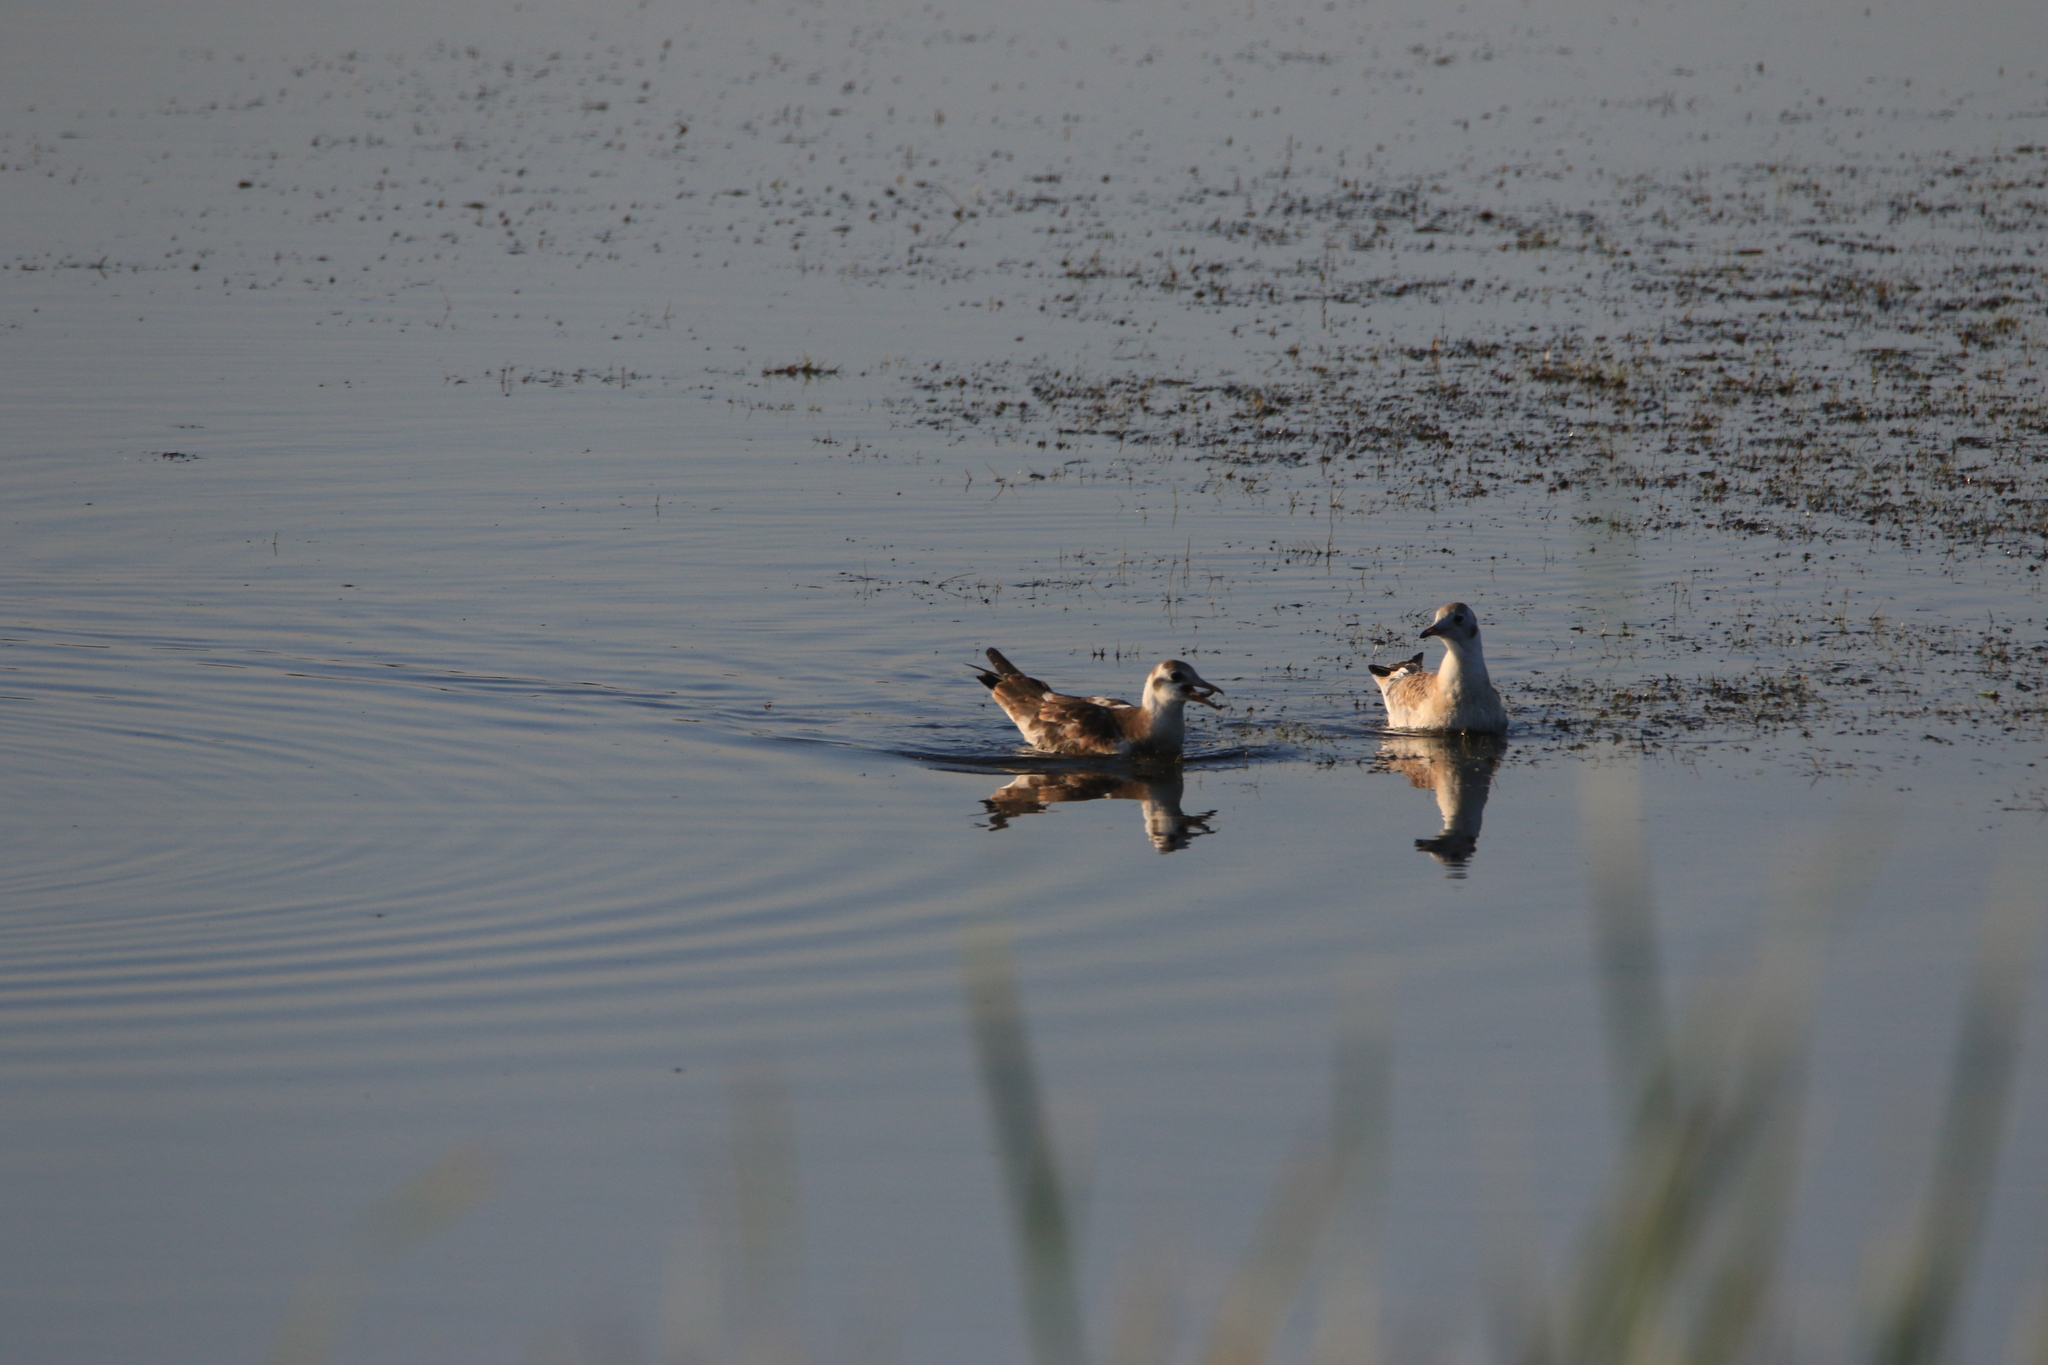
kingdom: Animalia
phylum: Chordata
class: Aves
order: Charadriiformes
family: Laridae
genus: Chroicocephalus
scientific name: Chroicocephalus ridibundus
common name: Black-headed gull
